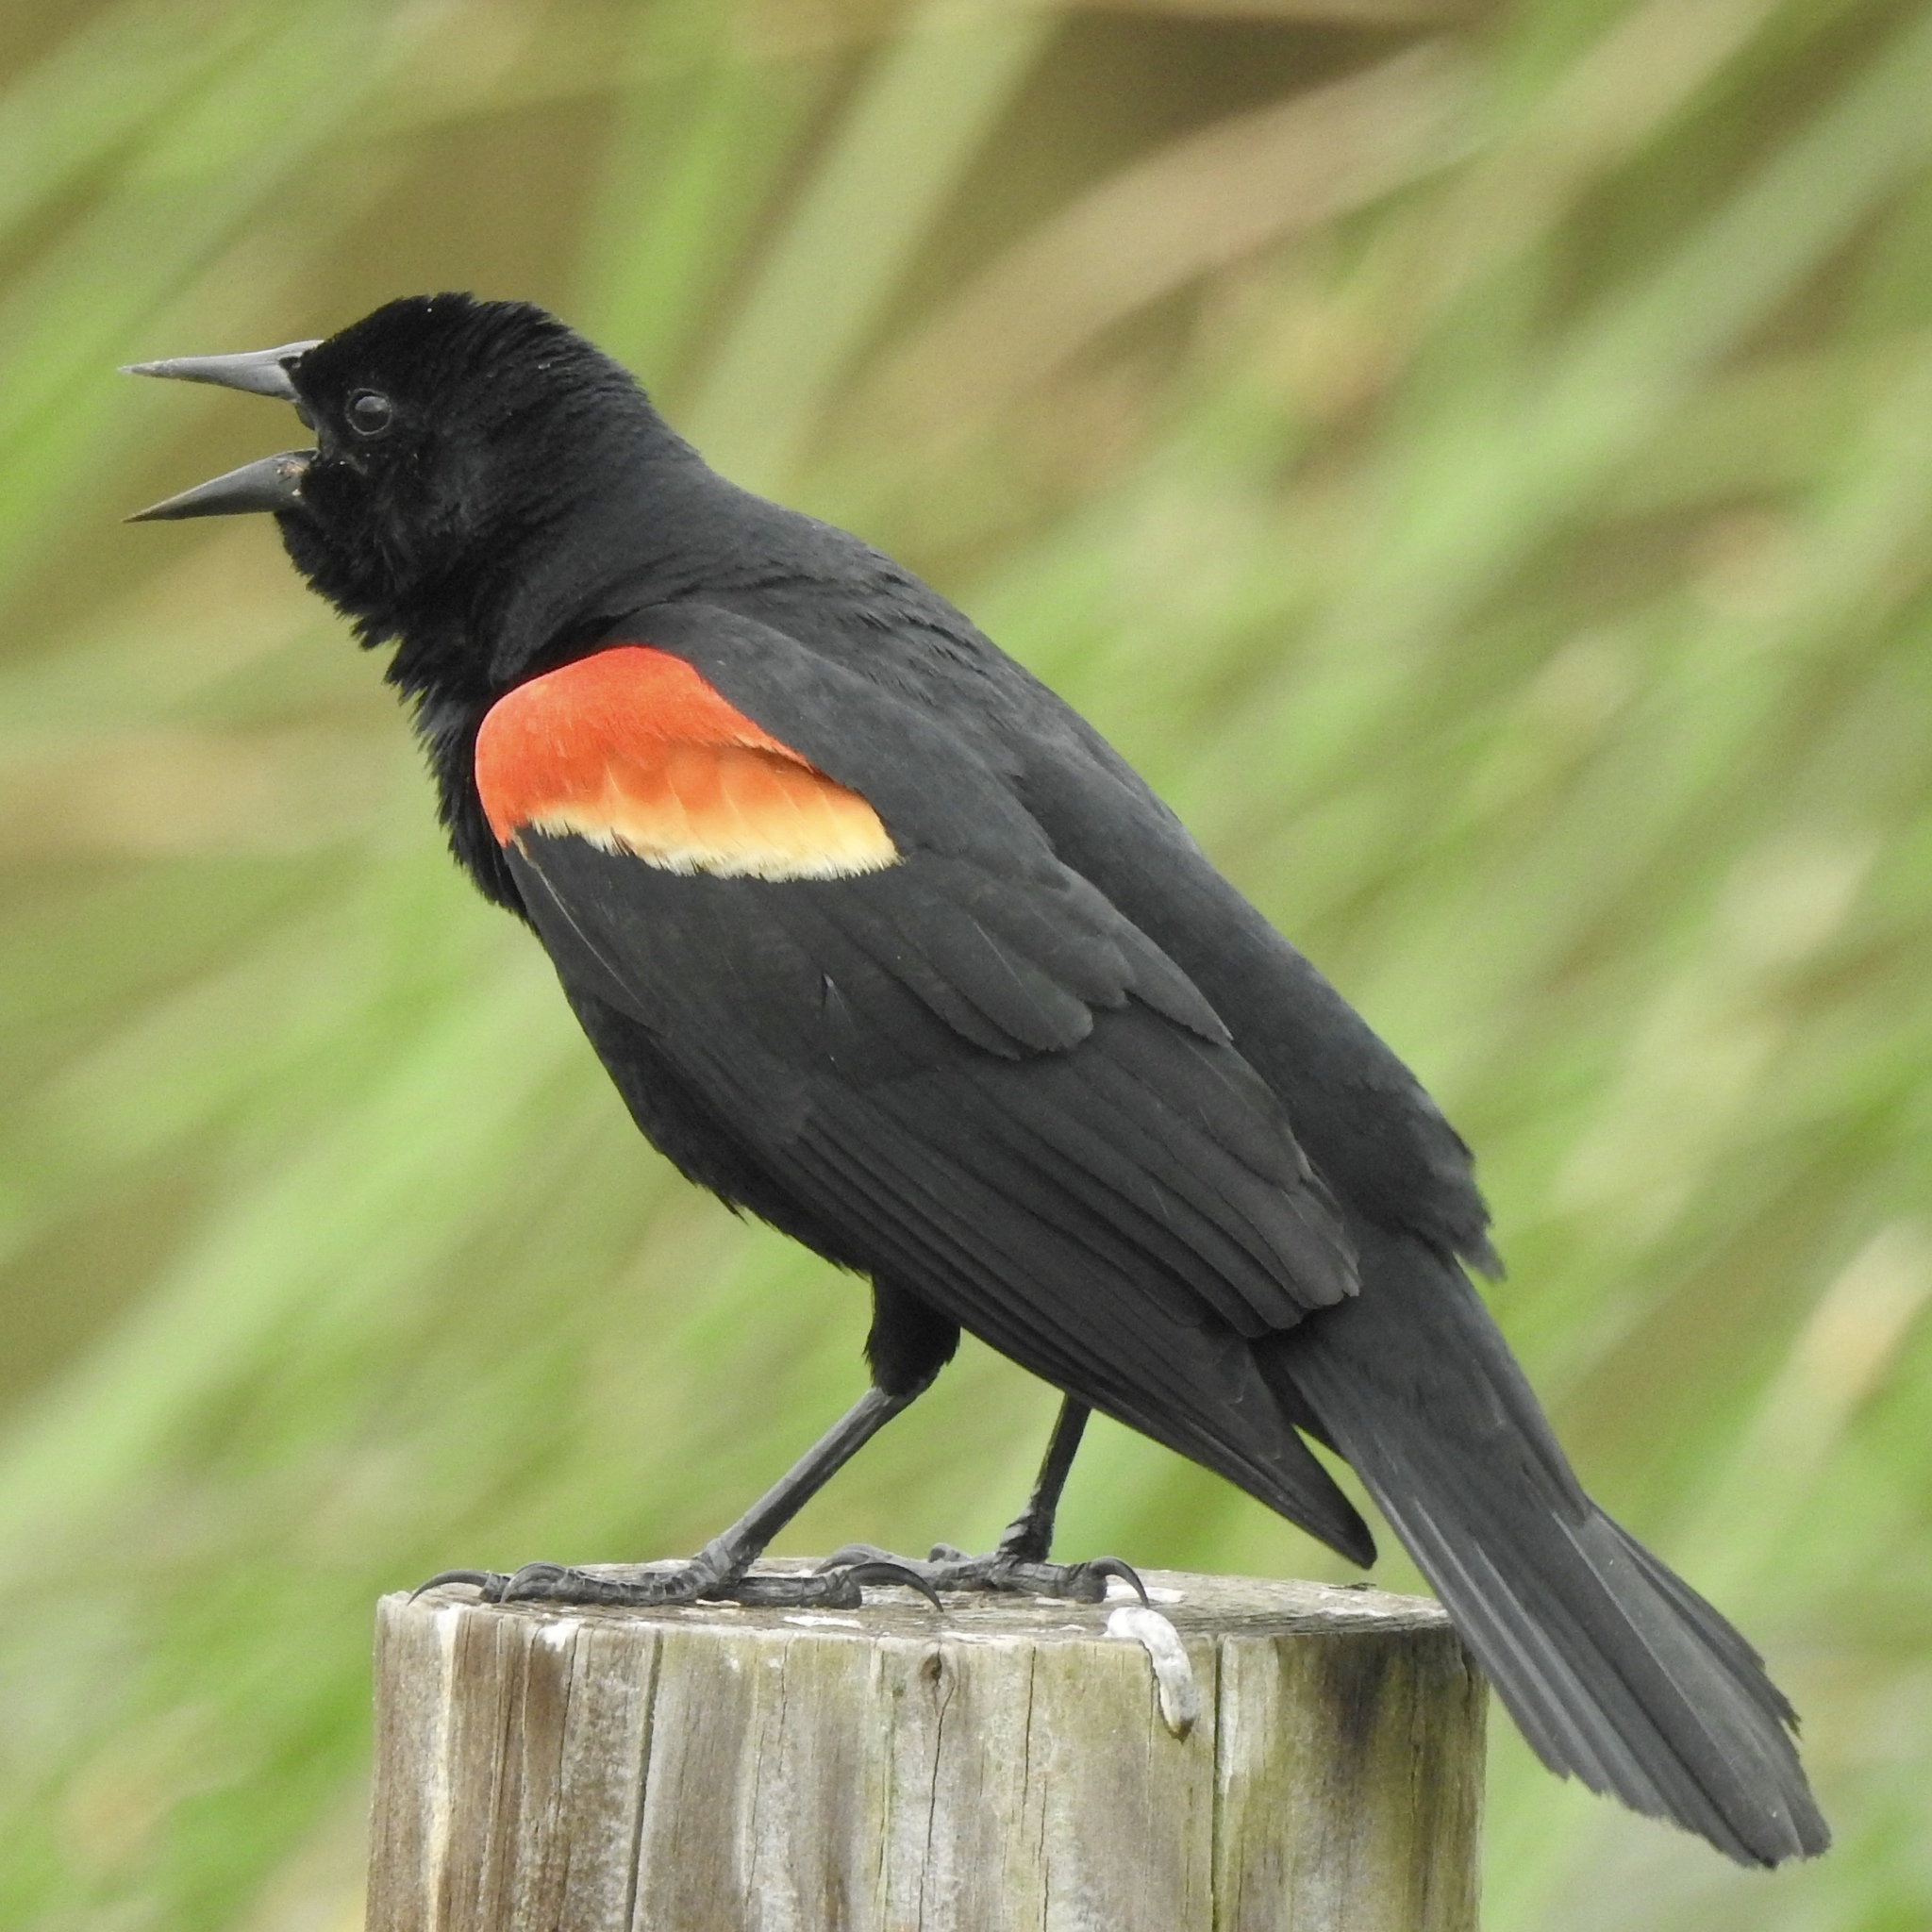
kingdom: Animalia
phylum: Chordata
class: Aves
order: Passeriformes
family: Icteridae
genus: Agelaius
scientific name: Agelaius phoeniceus
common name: Red-winged blackbird
